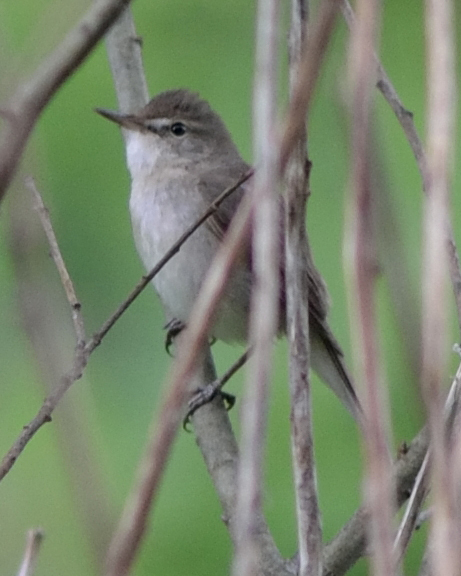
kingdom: Animalia
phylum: Chordata
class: Aves
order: Passeriformes
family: Acrocephalidae
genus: Acrocephalus
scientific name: Acrocephalus dumetorum
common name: Blyth's reed warbler
